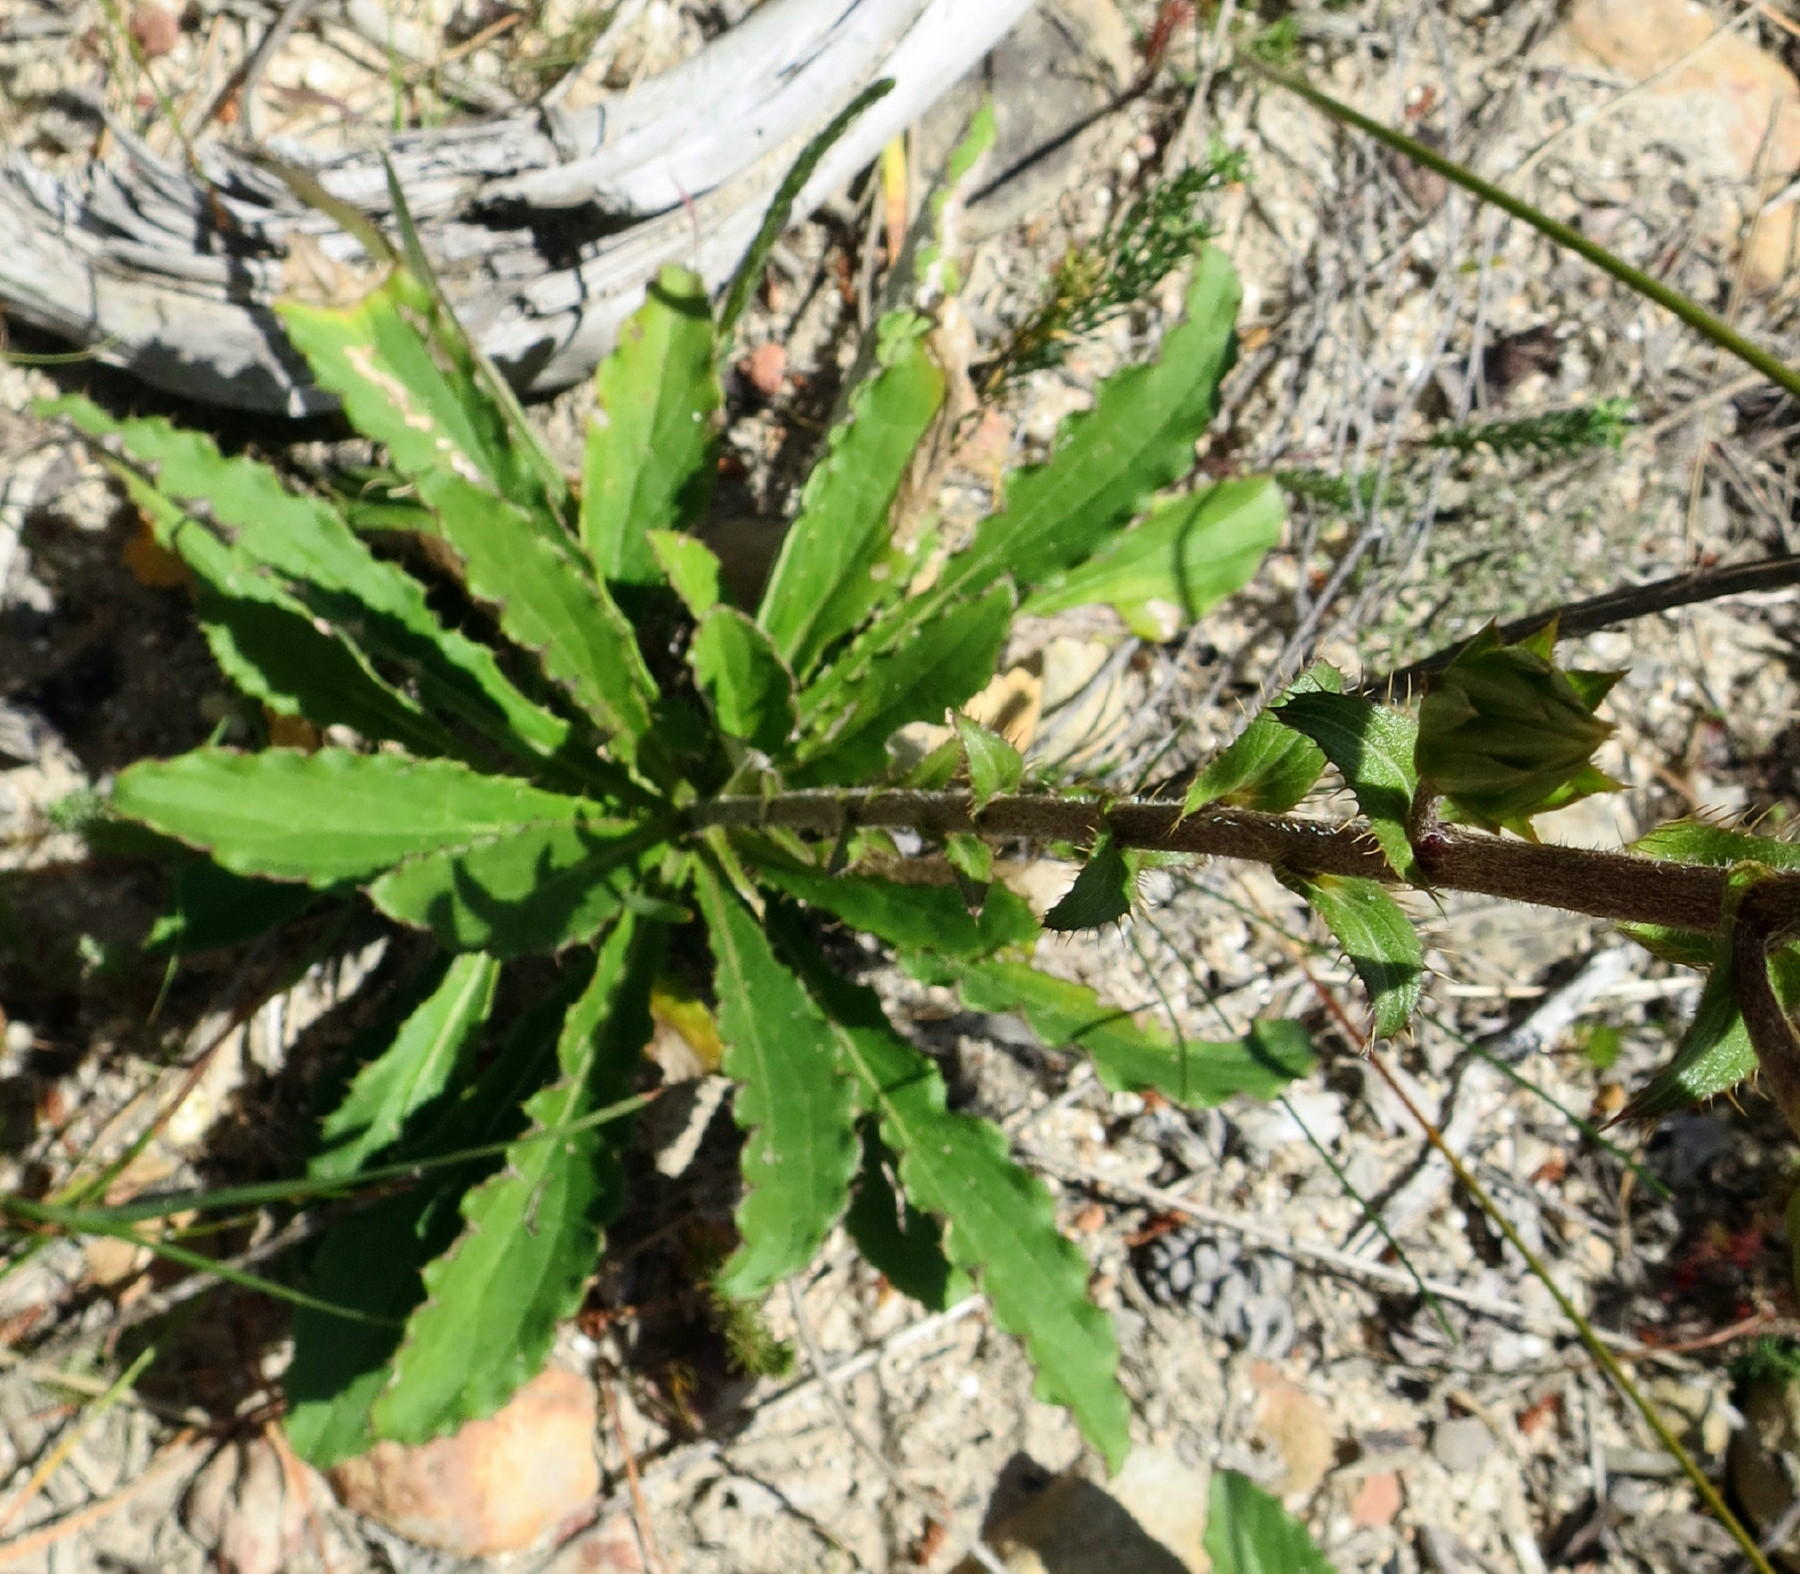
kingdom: Plantae
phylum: Tracheophyta
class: Magnoliopsida
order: Asterales
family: Asteraceae
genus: Berkheya
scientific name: Berkheya armata
